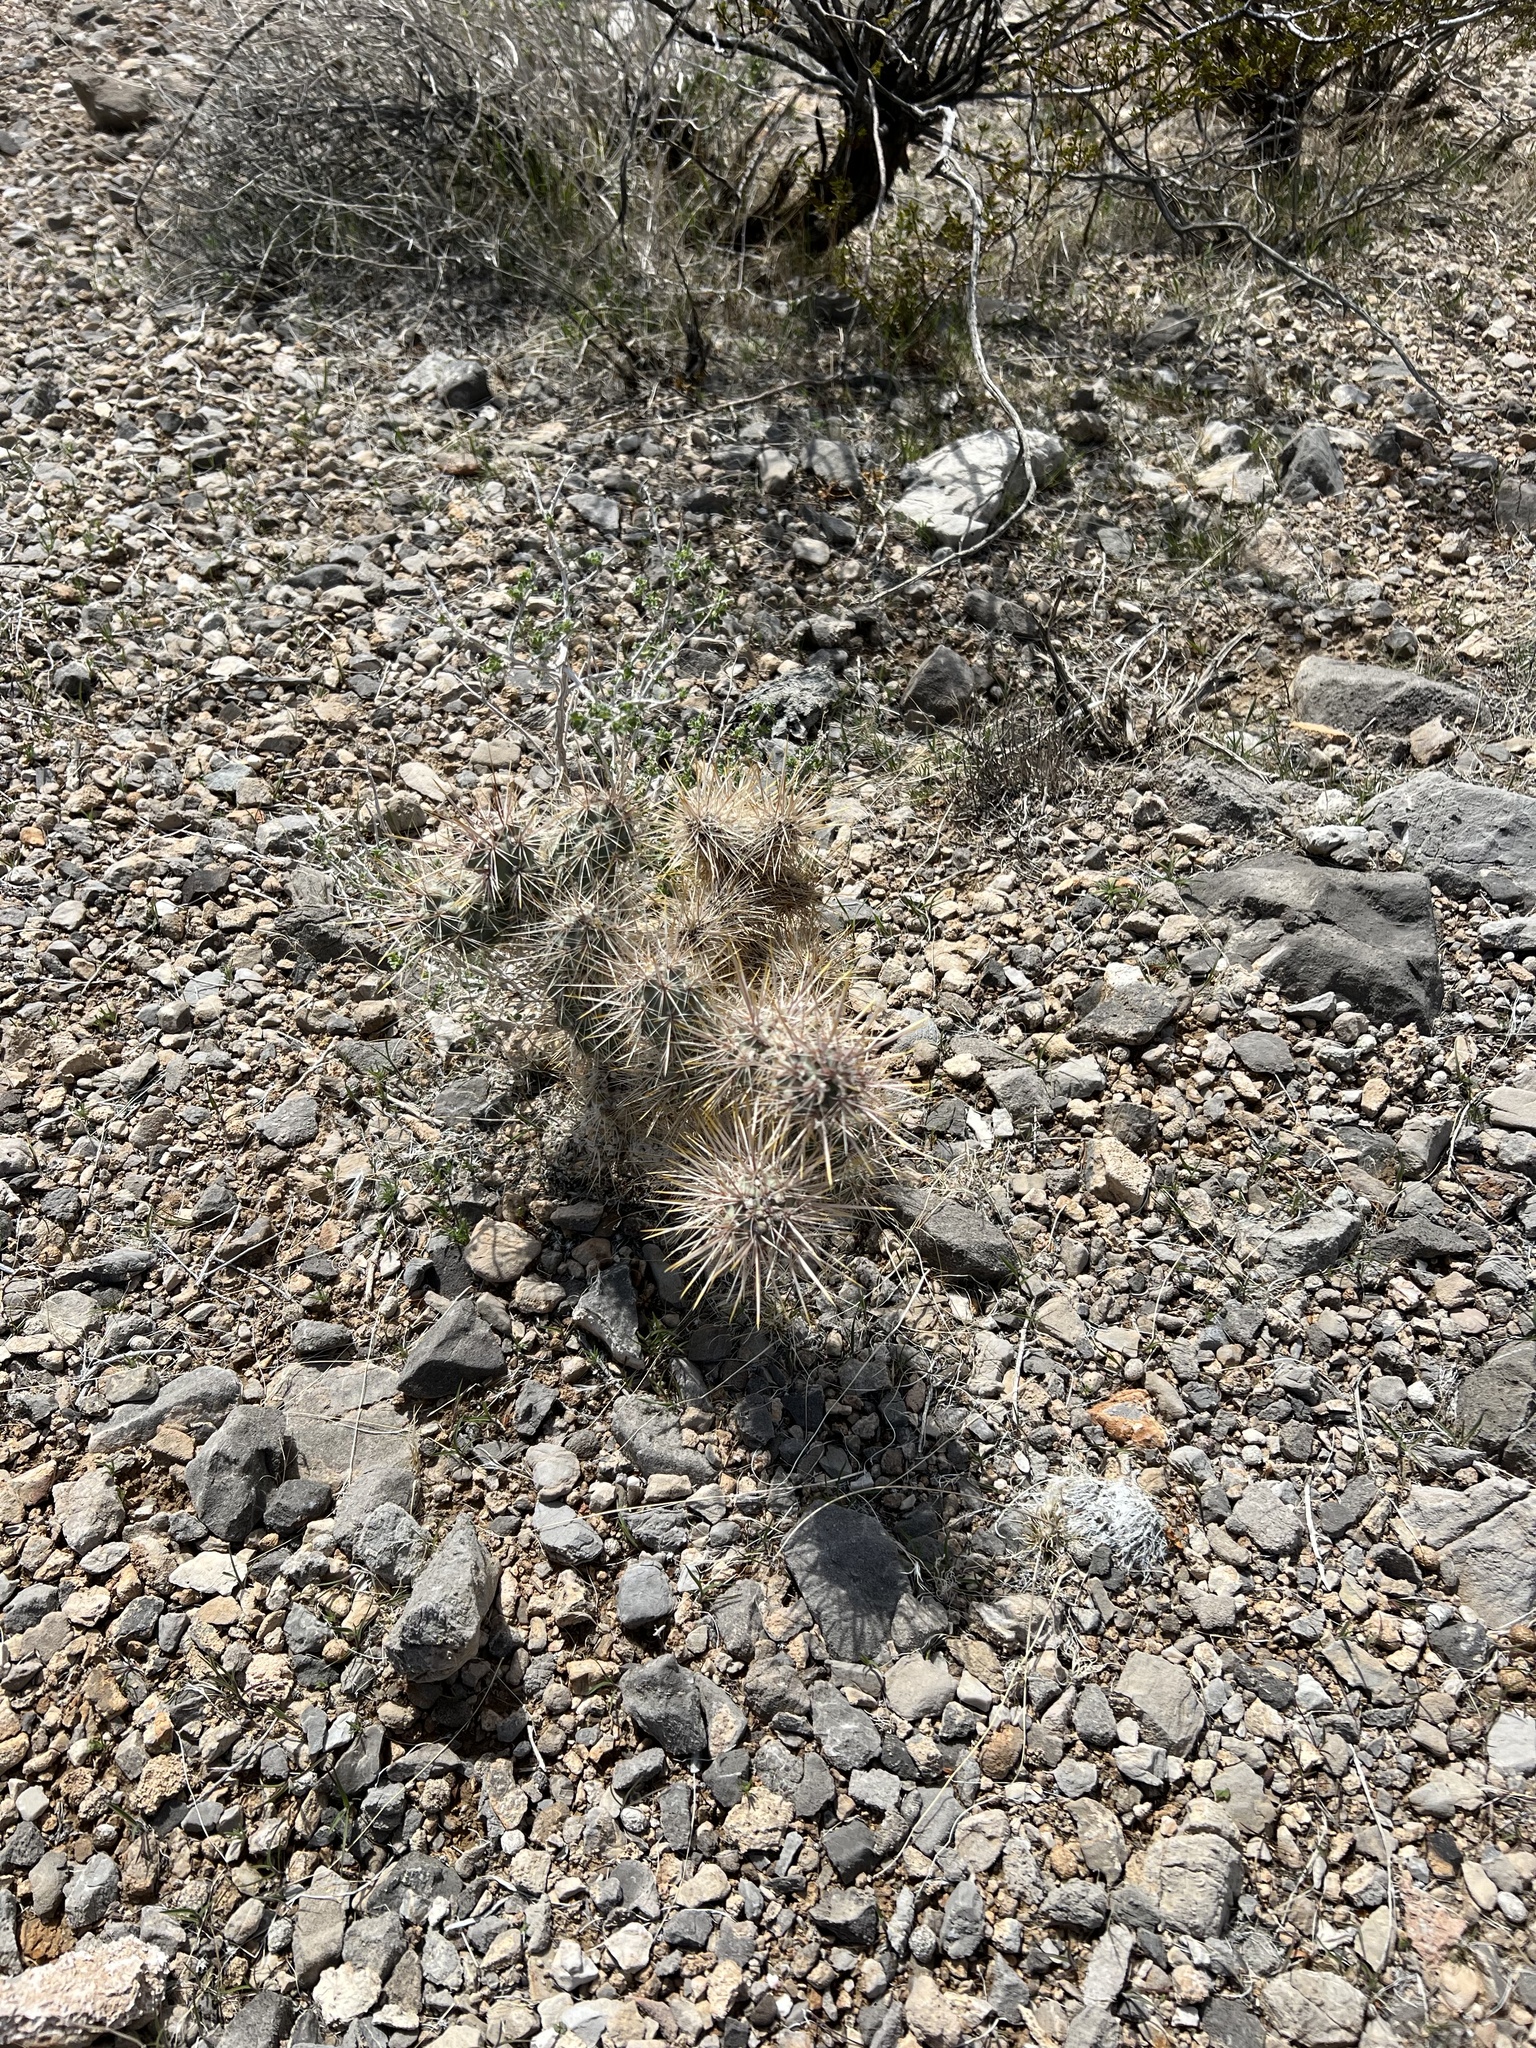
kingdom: Plantae
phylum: Tracheophyta
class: Magnoliopsida
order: Caryophyllales
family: Cactaceae
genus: Cylindropuntia
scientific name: Cylindropuntia echinocarpa
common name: Ground cholla
